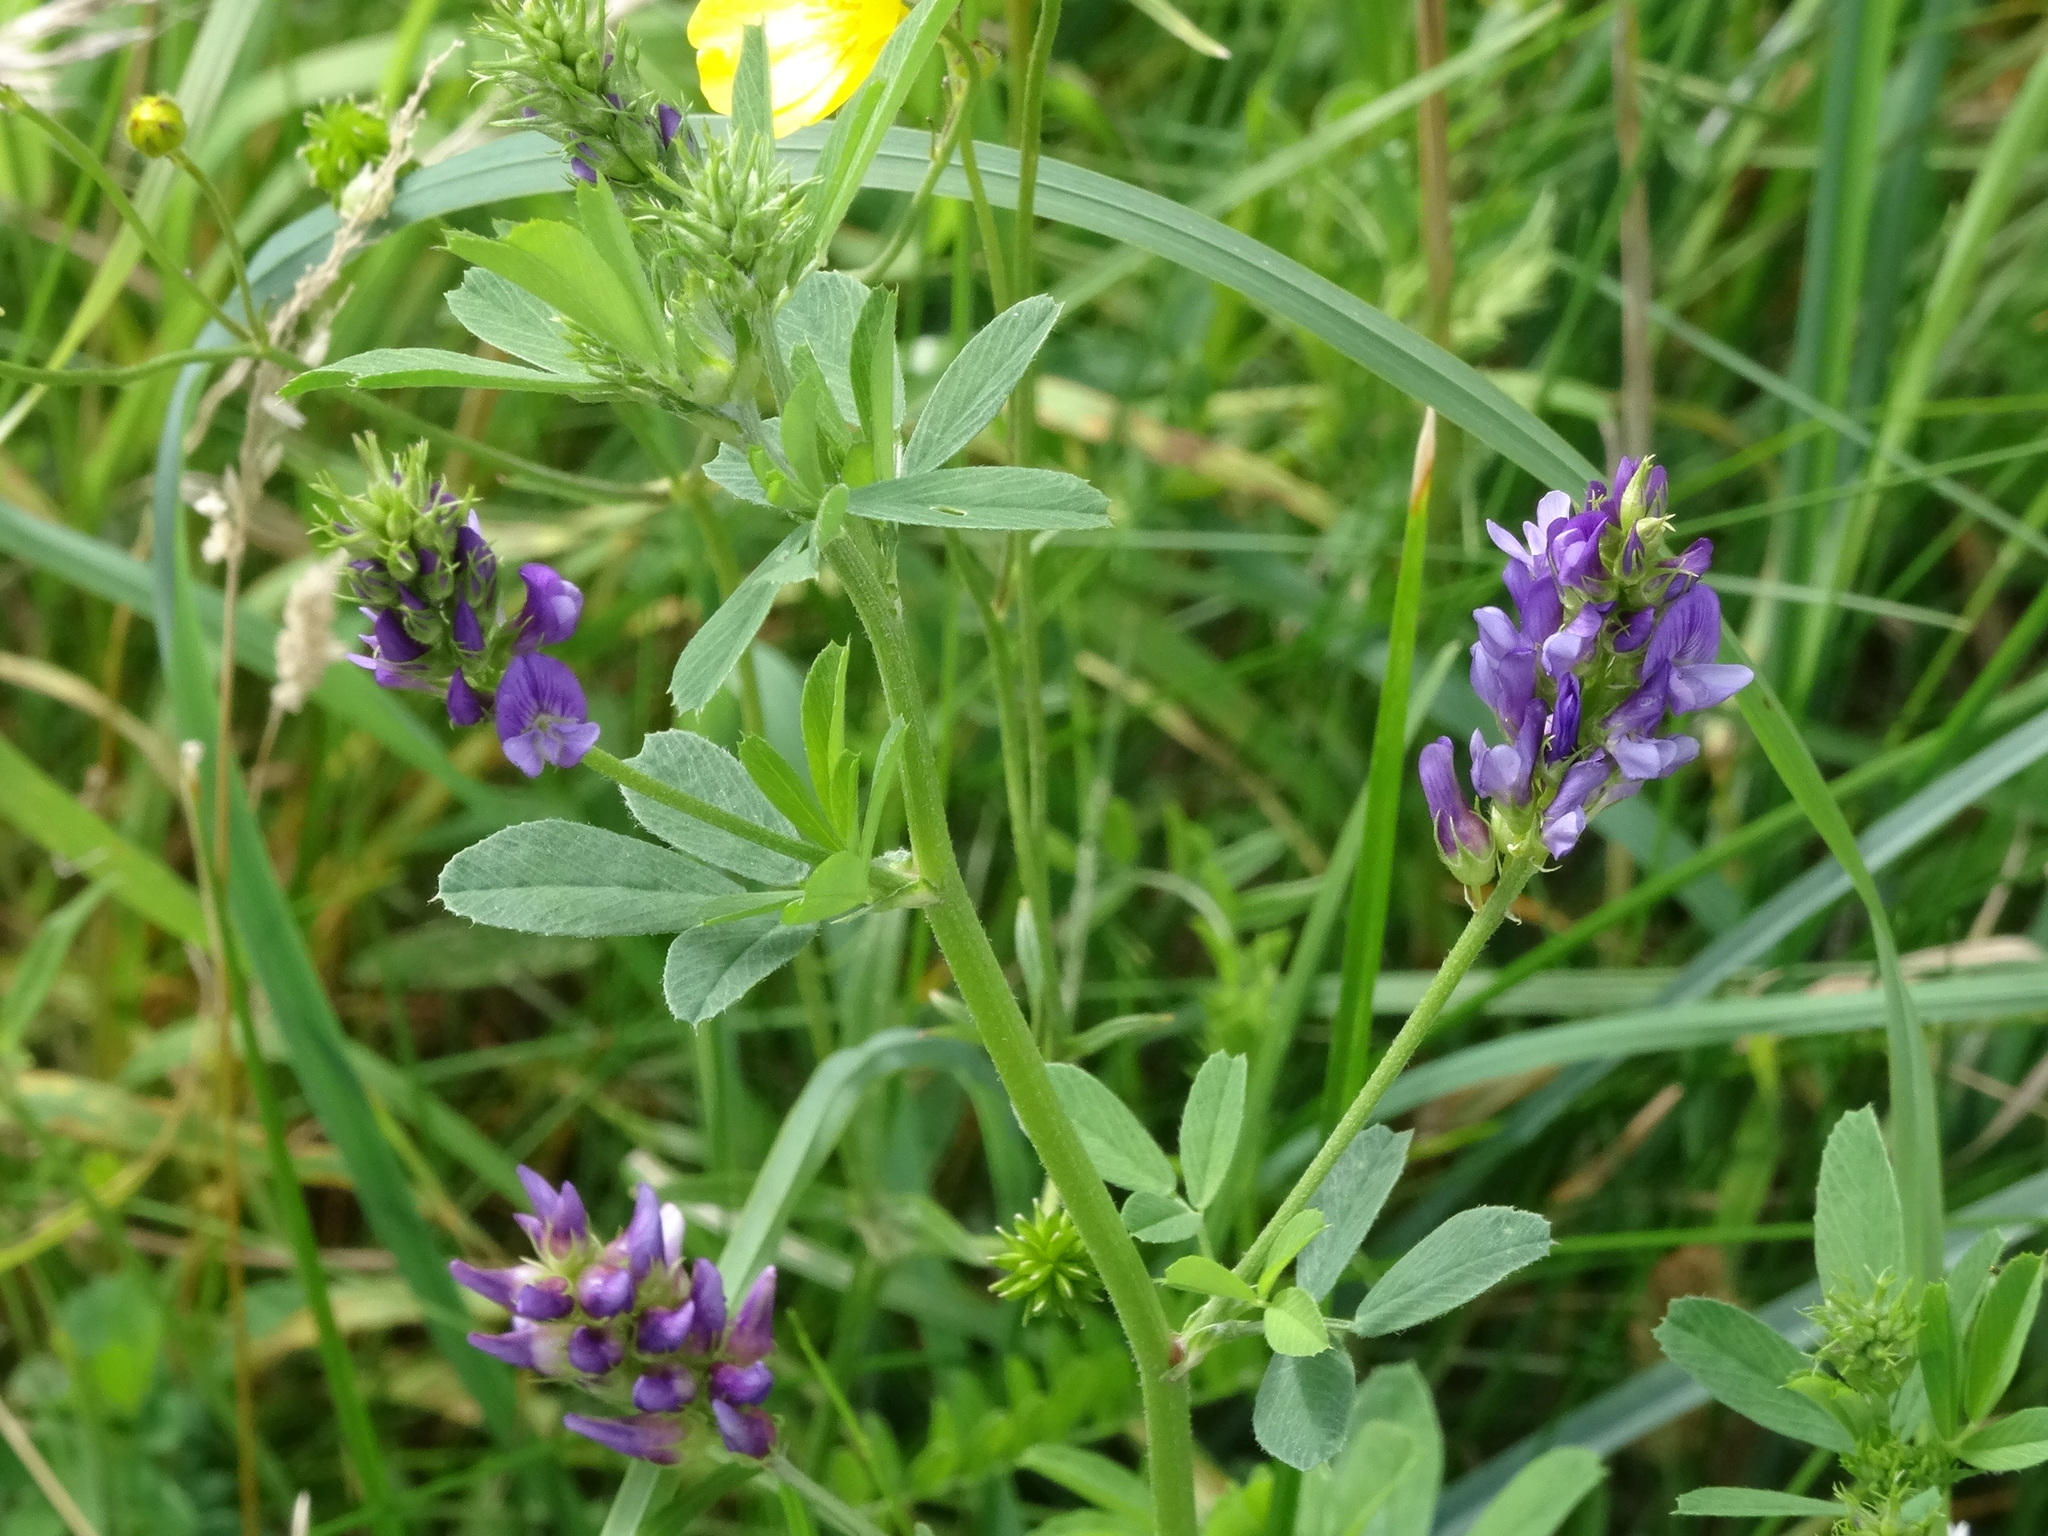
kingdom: Plantae
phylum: Tracheophyta
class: Magnoliopsida
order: Fabales
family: Fabaceae
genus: Medicago
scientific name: Medicago sativa
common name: Alfalfa
